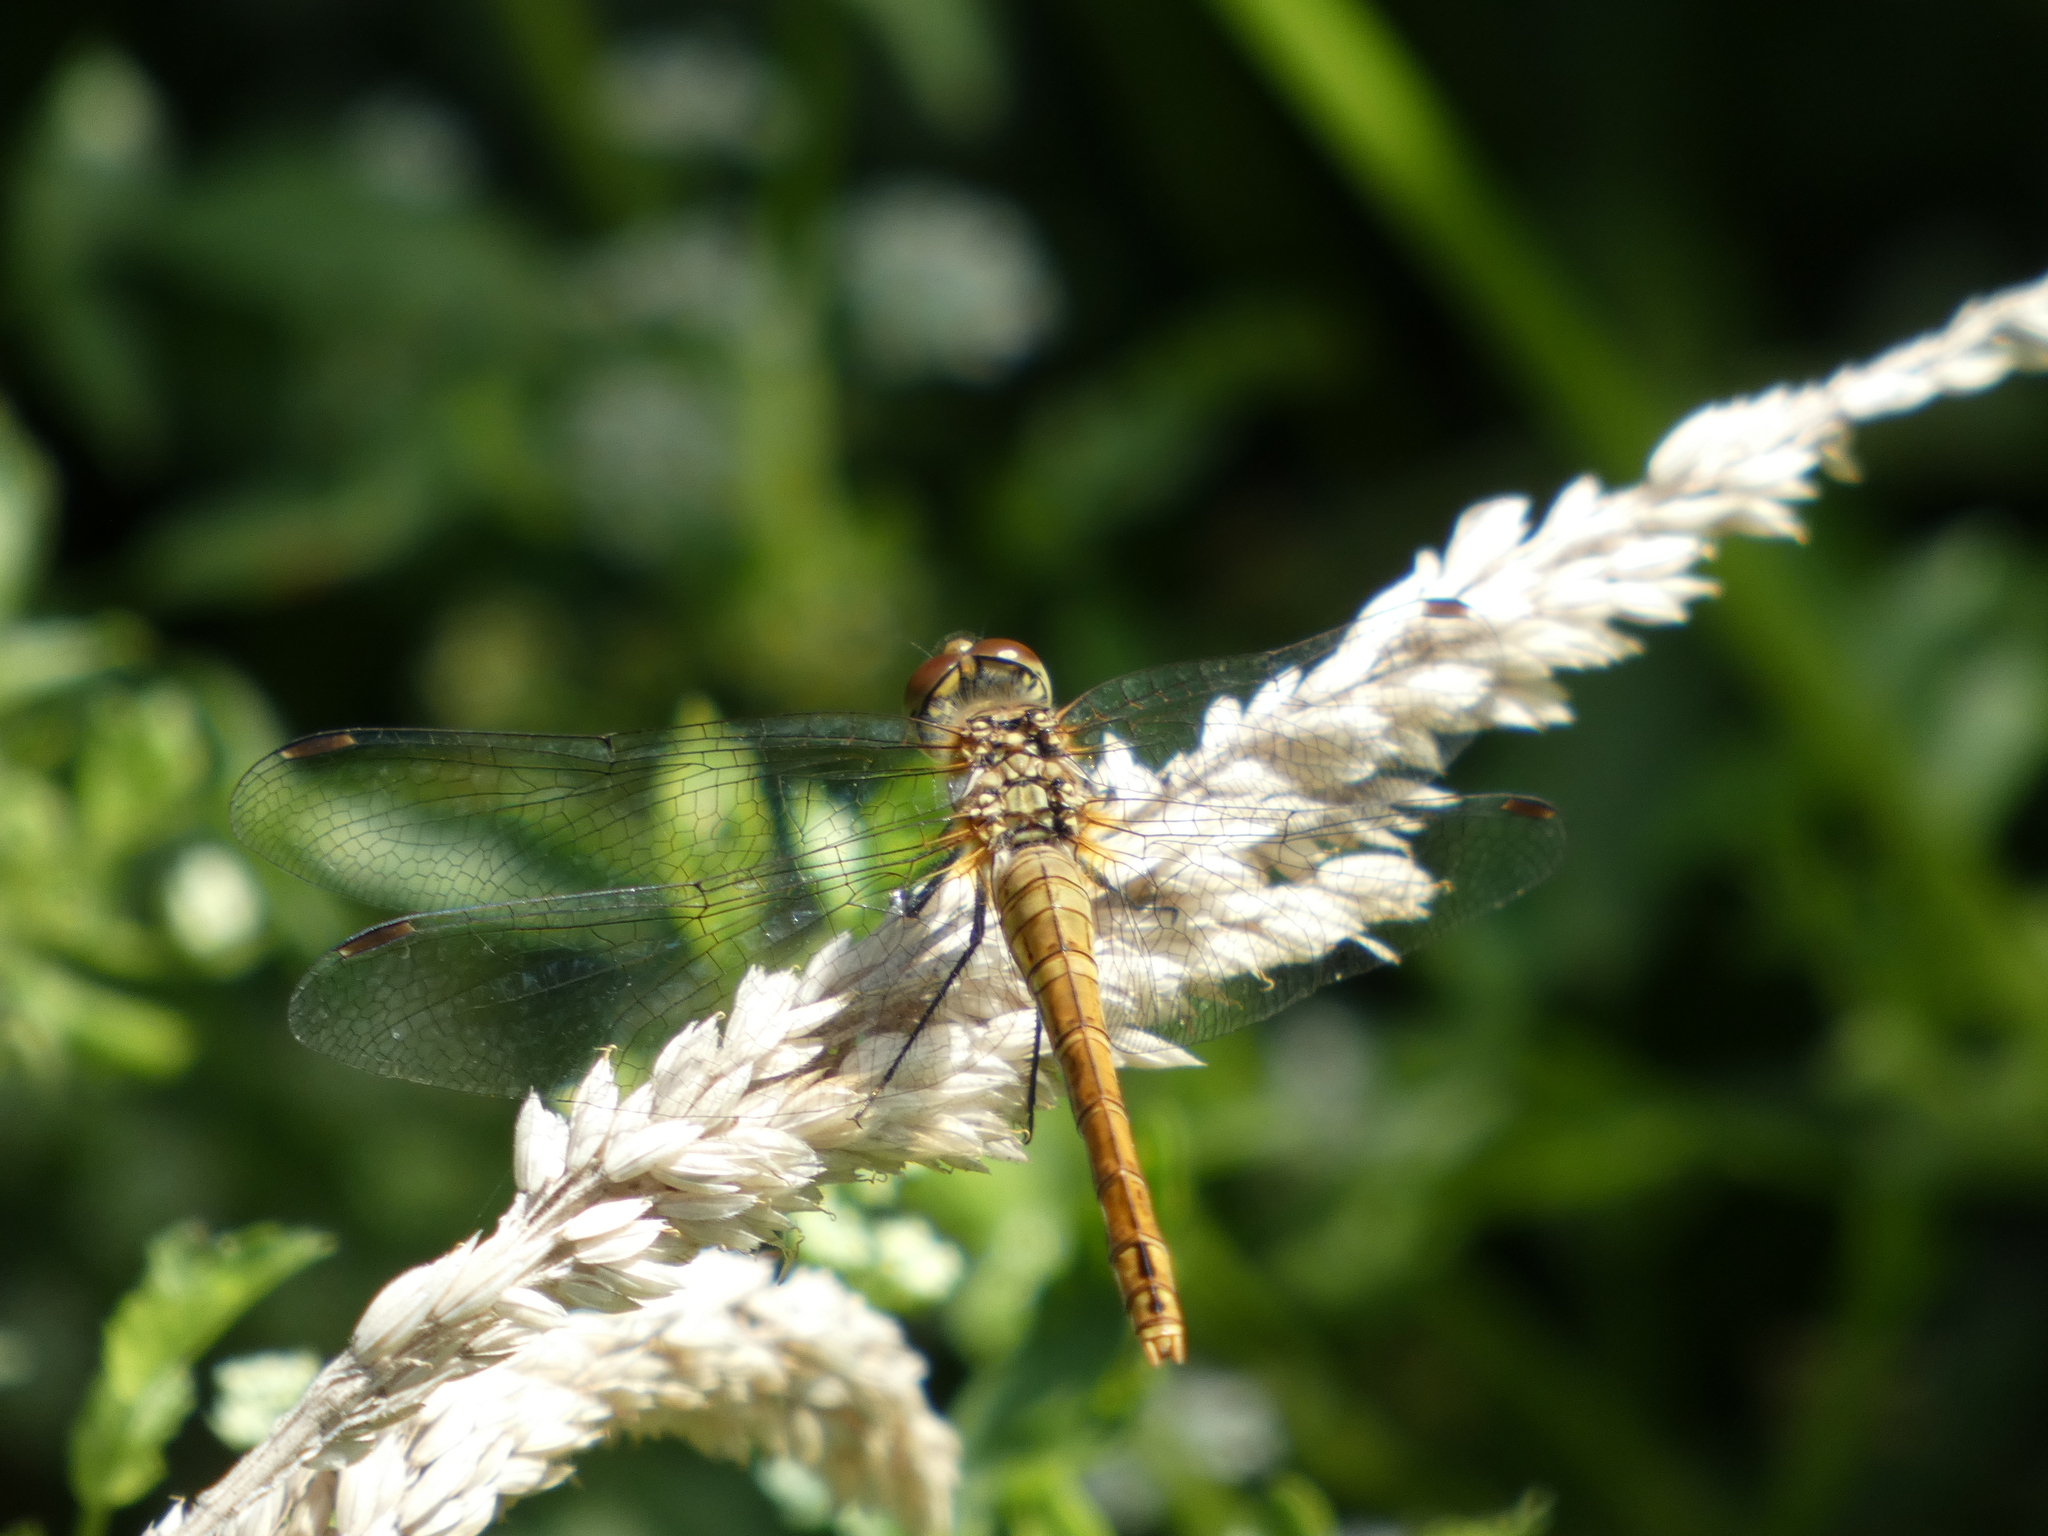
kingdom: Animalia
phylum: Arthropoda
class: Insecta
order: Odonata
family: Libellulidae
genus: Sympetrum
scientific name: Sympetrum sanguineum
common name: Ruddy darter
